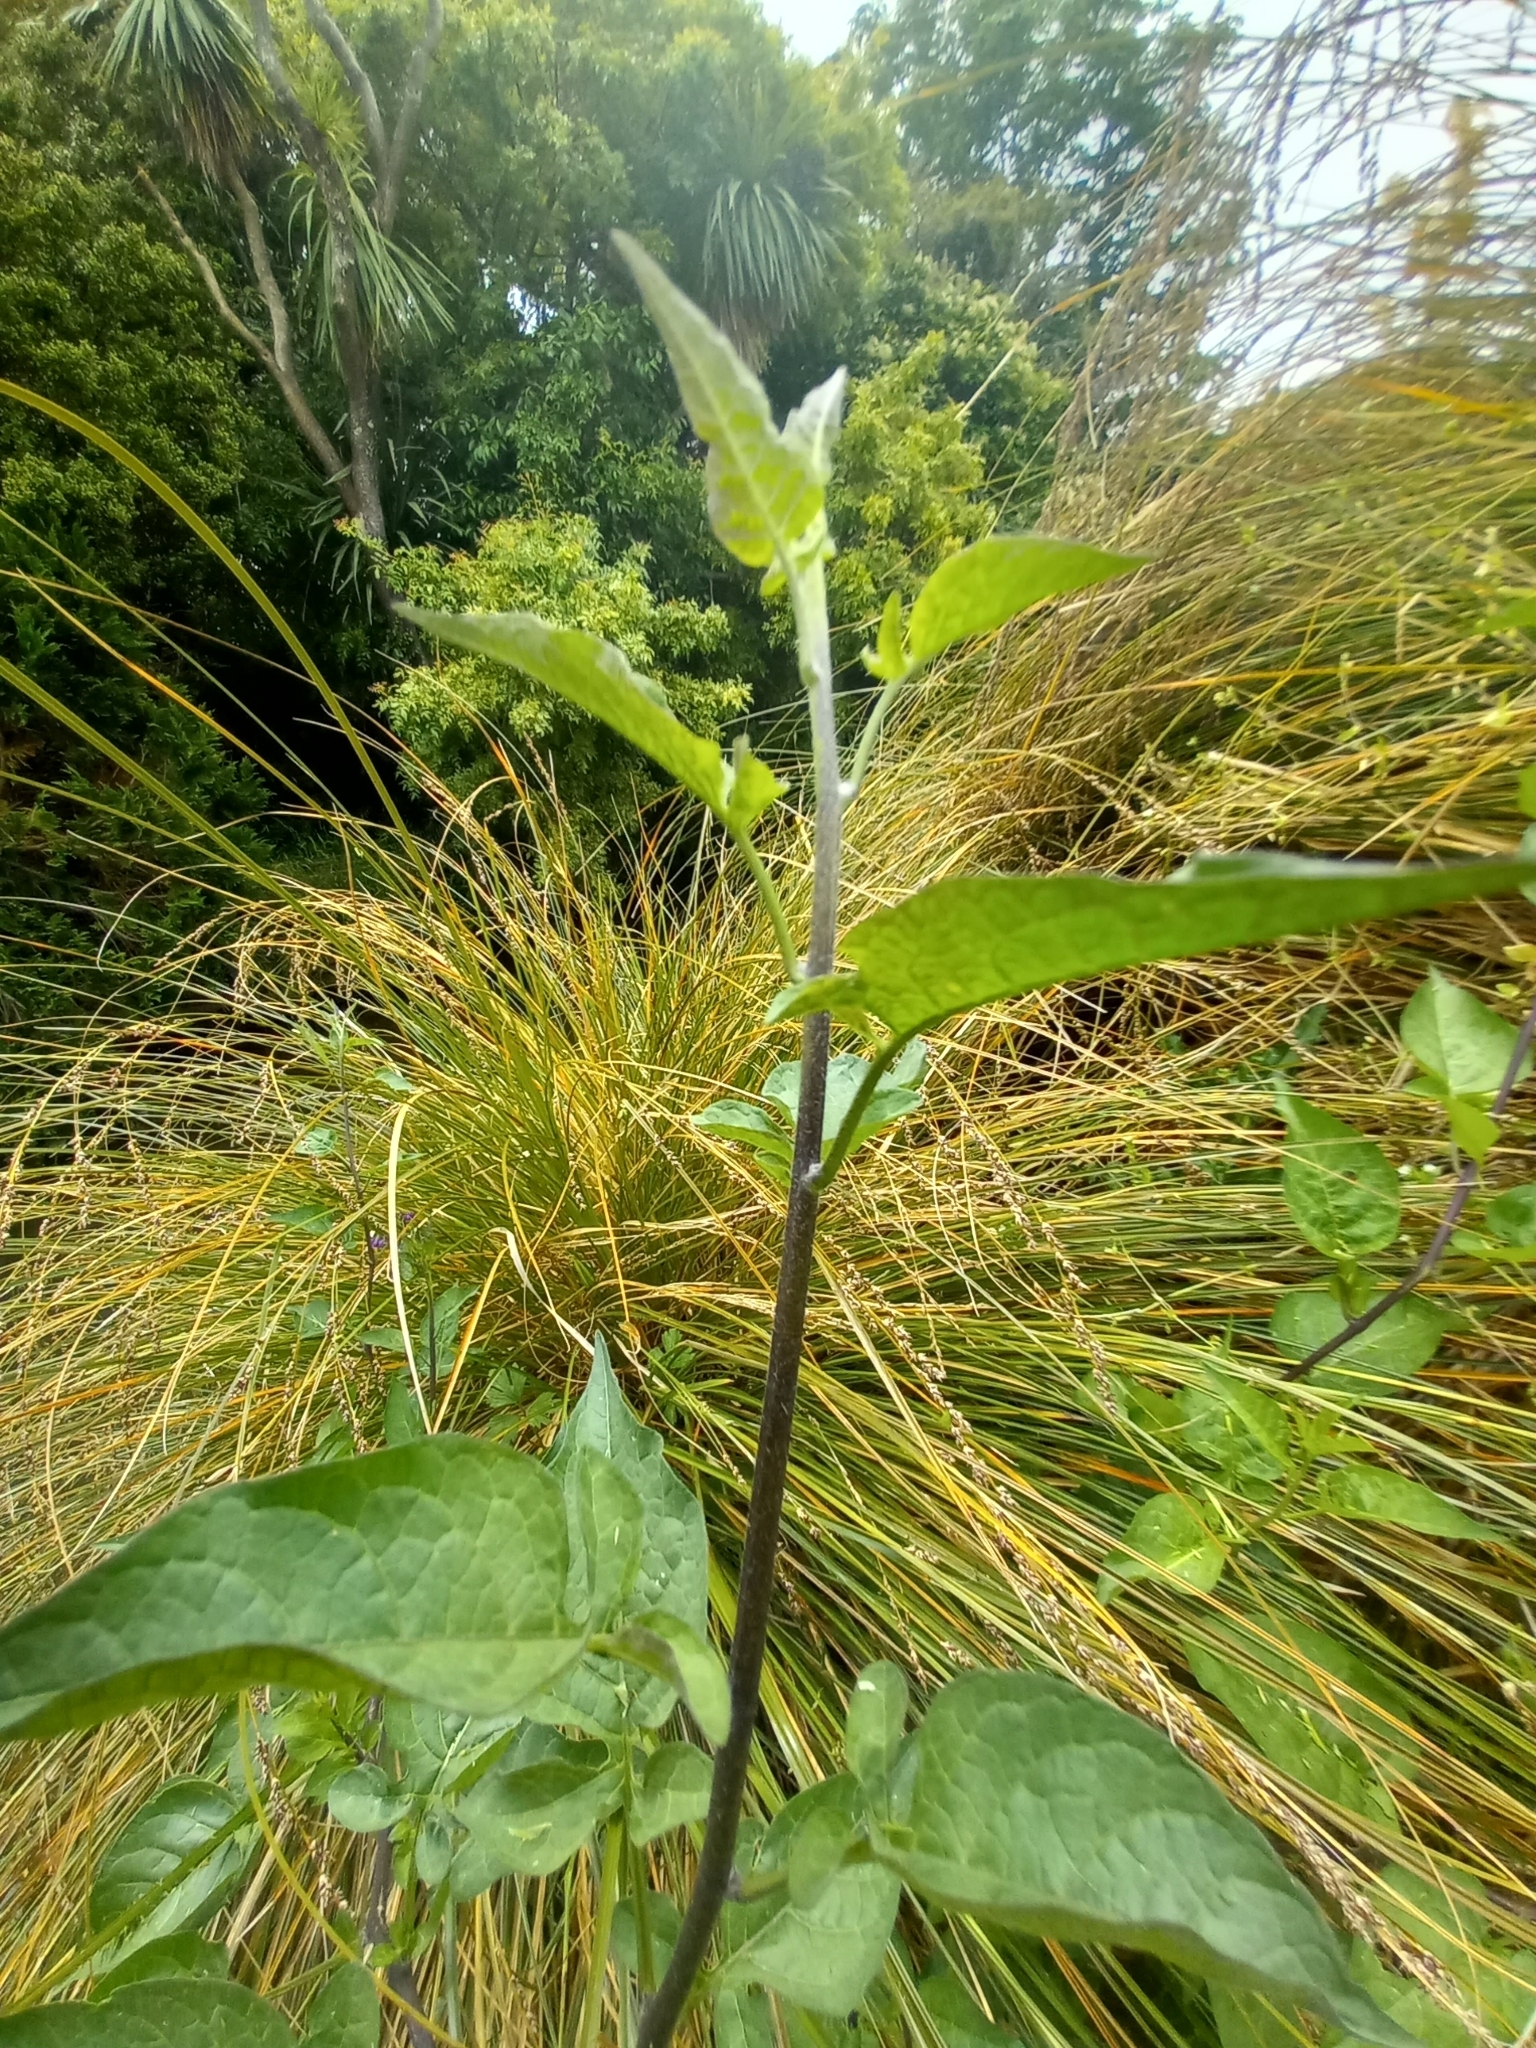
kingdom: Plantae
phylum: Tracheophyta
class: Magnoliopsida
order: Solanales
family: Solanaceae
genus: Solanum
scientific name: Solanum dulcamara
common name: Climbing nightshade
